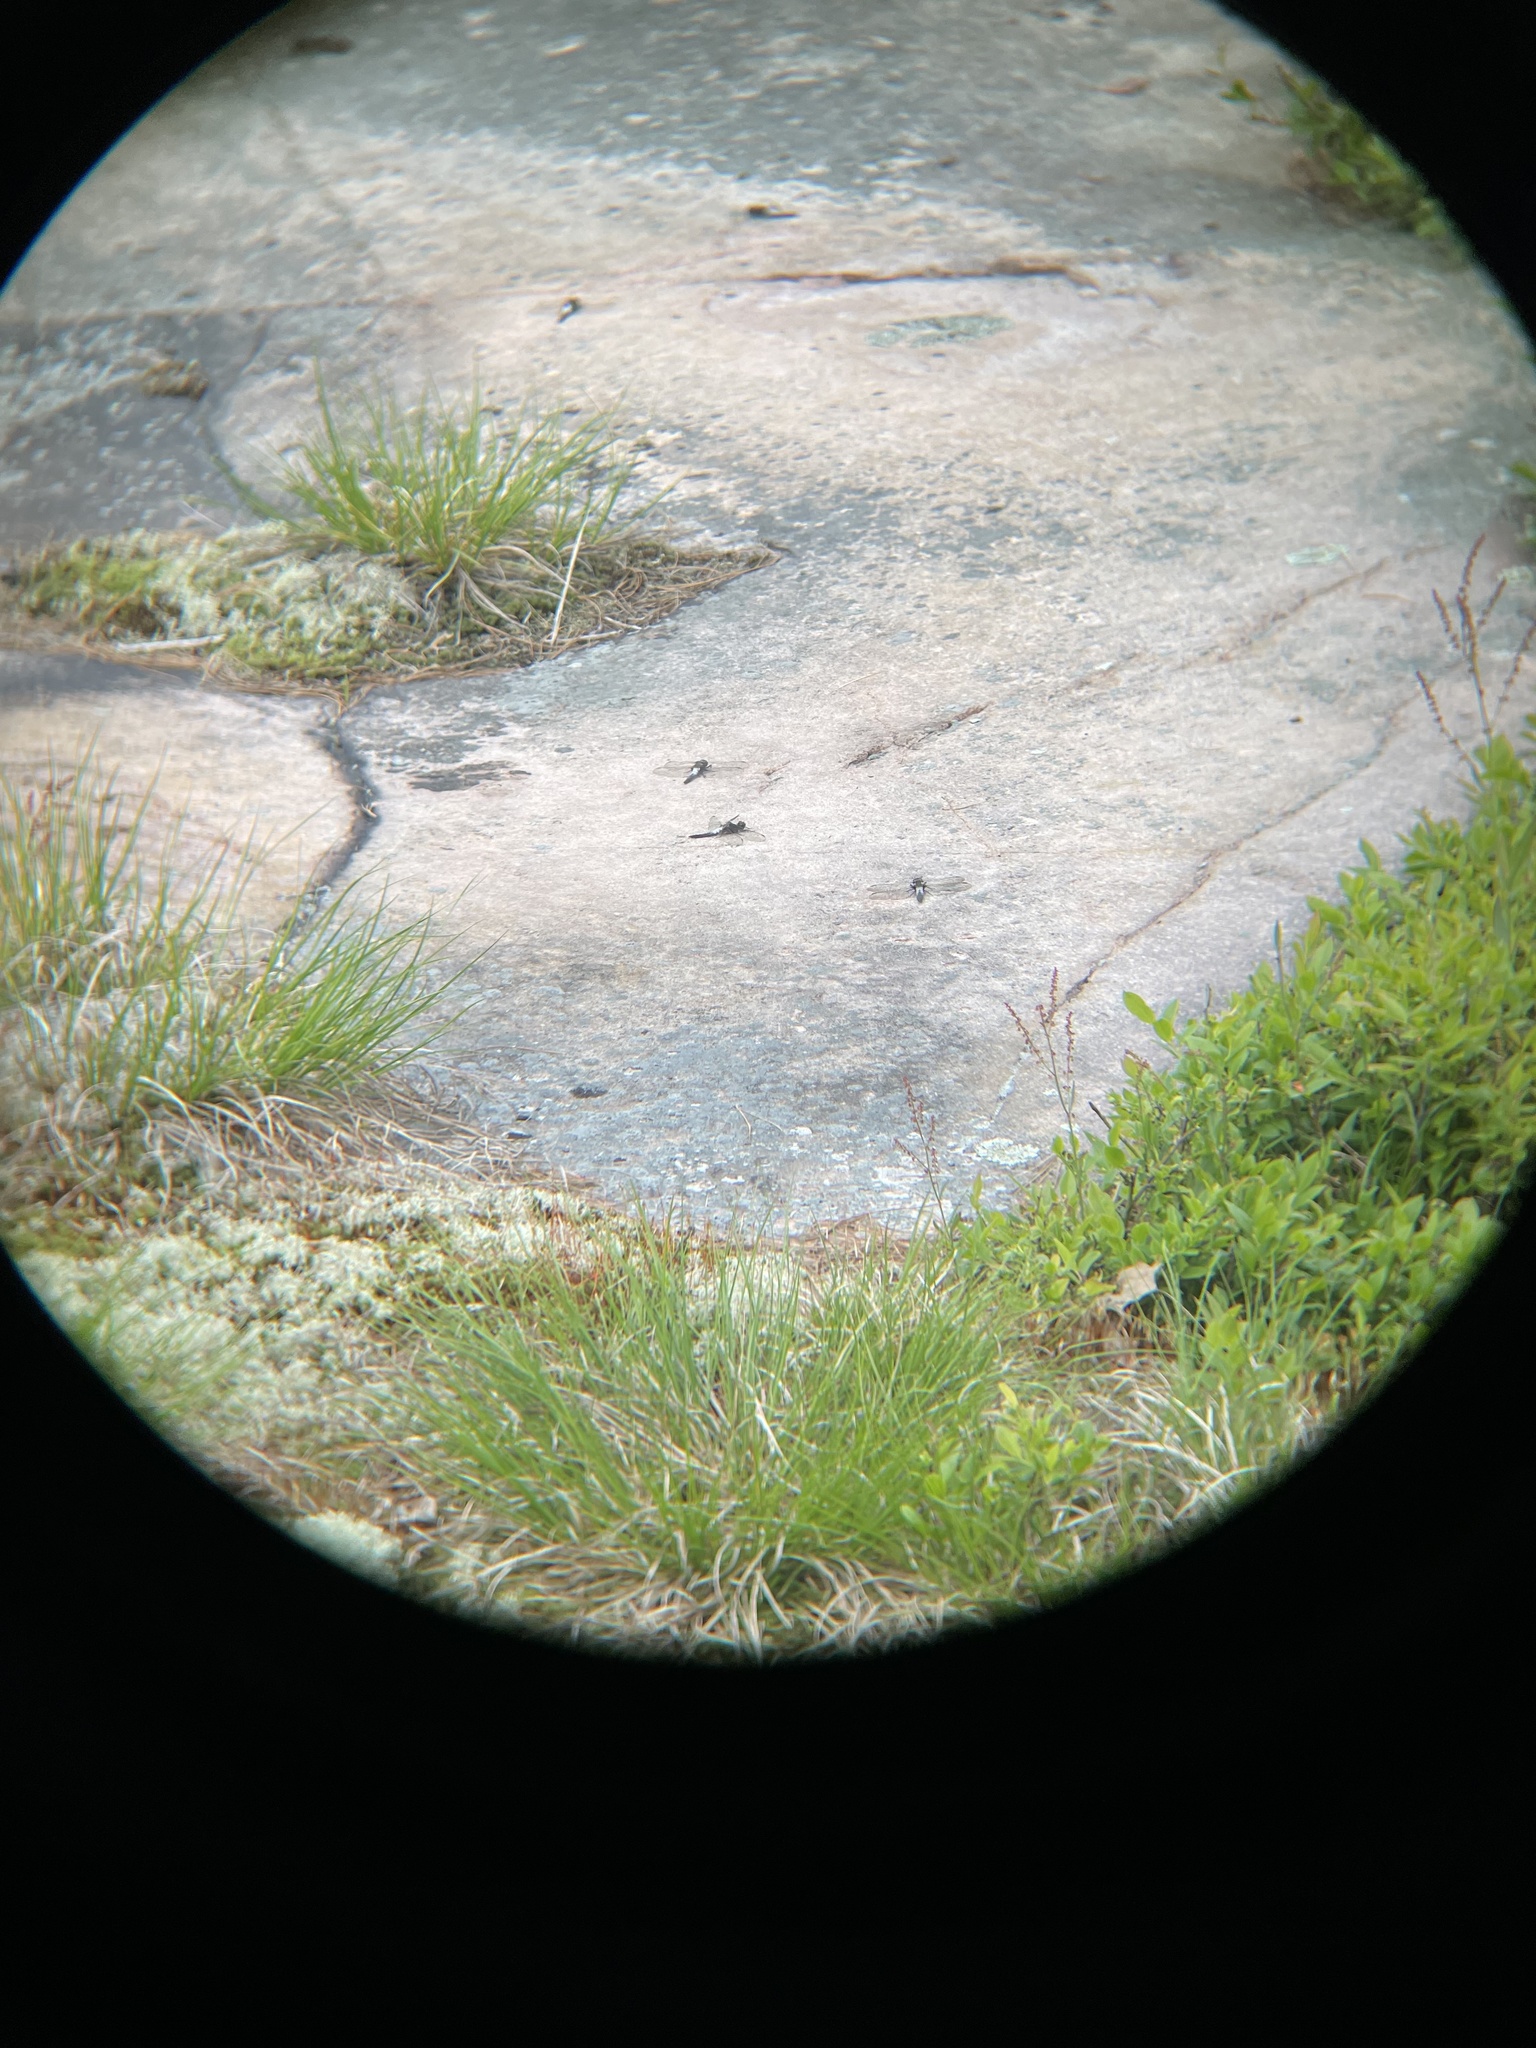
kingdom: Animalia
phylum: Arthropoda
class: Insecta
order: Odonata
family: Libellulidae
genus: Ladona
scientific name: Ladona julia
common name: Chalk-fronted corporal
